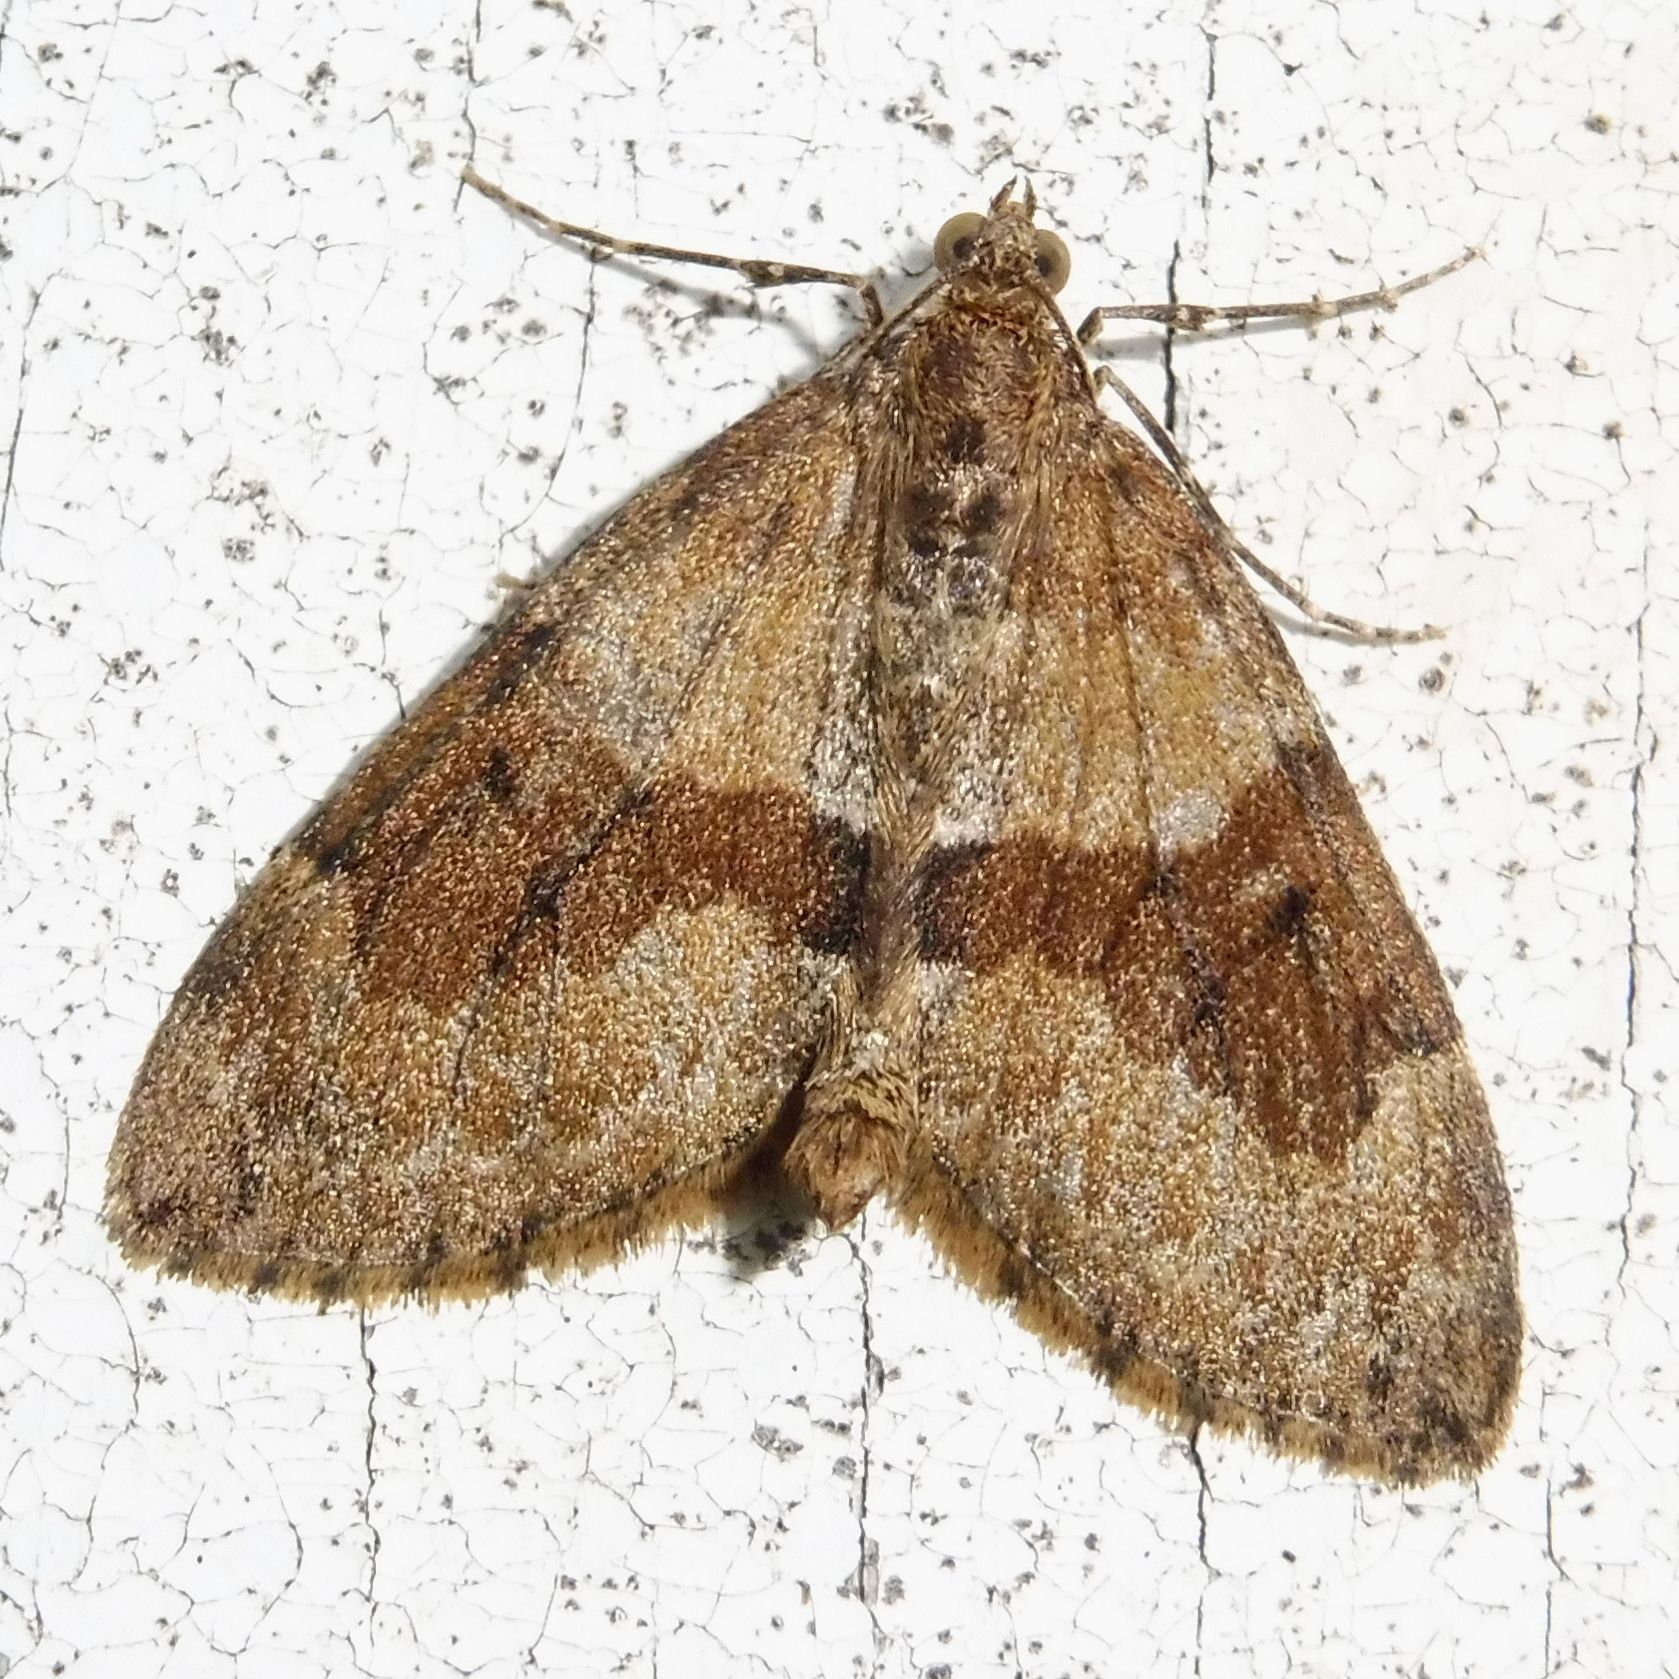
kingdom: Animalia
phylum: Arthropoda
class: Insecta
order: Lepidoptera
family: Geometridae
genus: Thera
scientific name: Thera obeliscata
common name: Grey pine carpet
